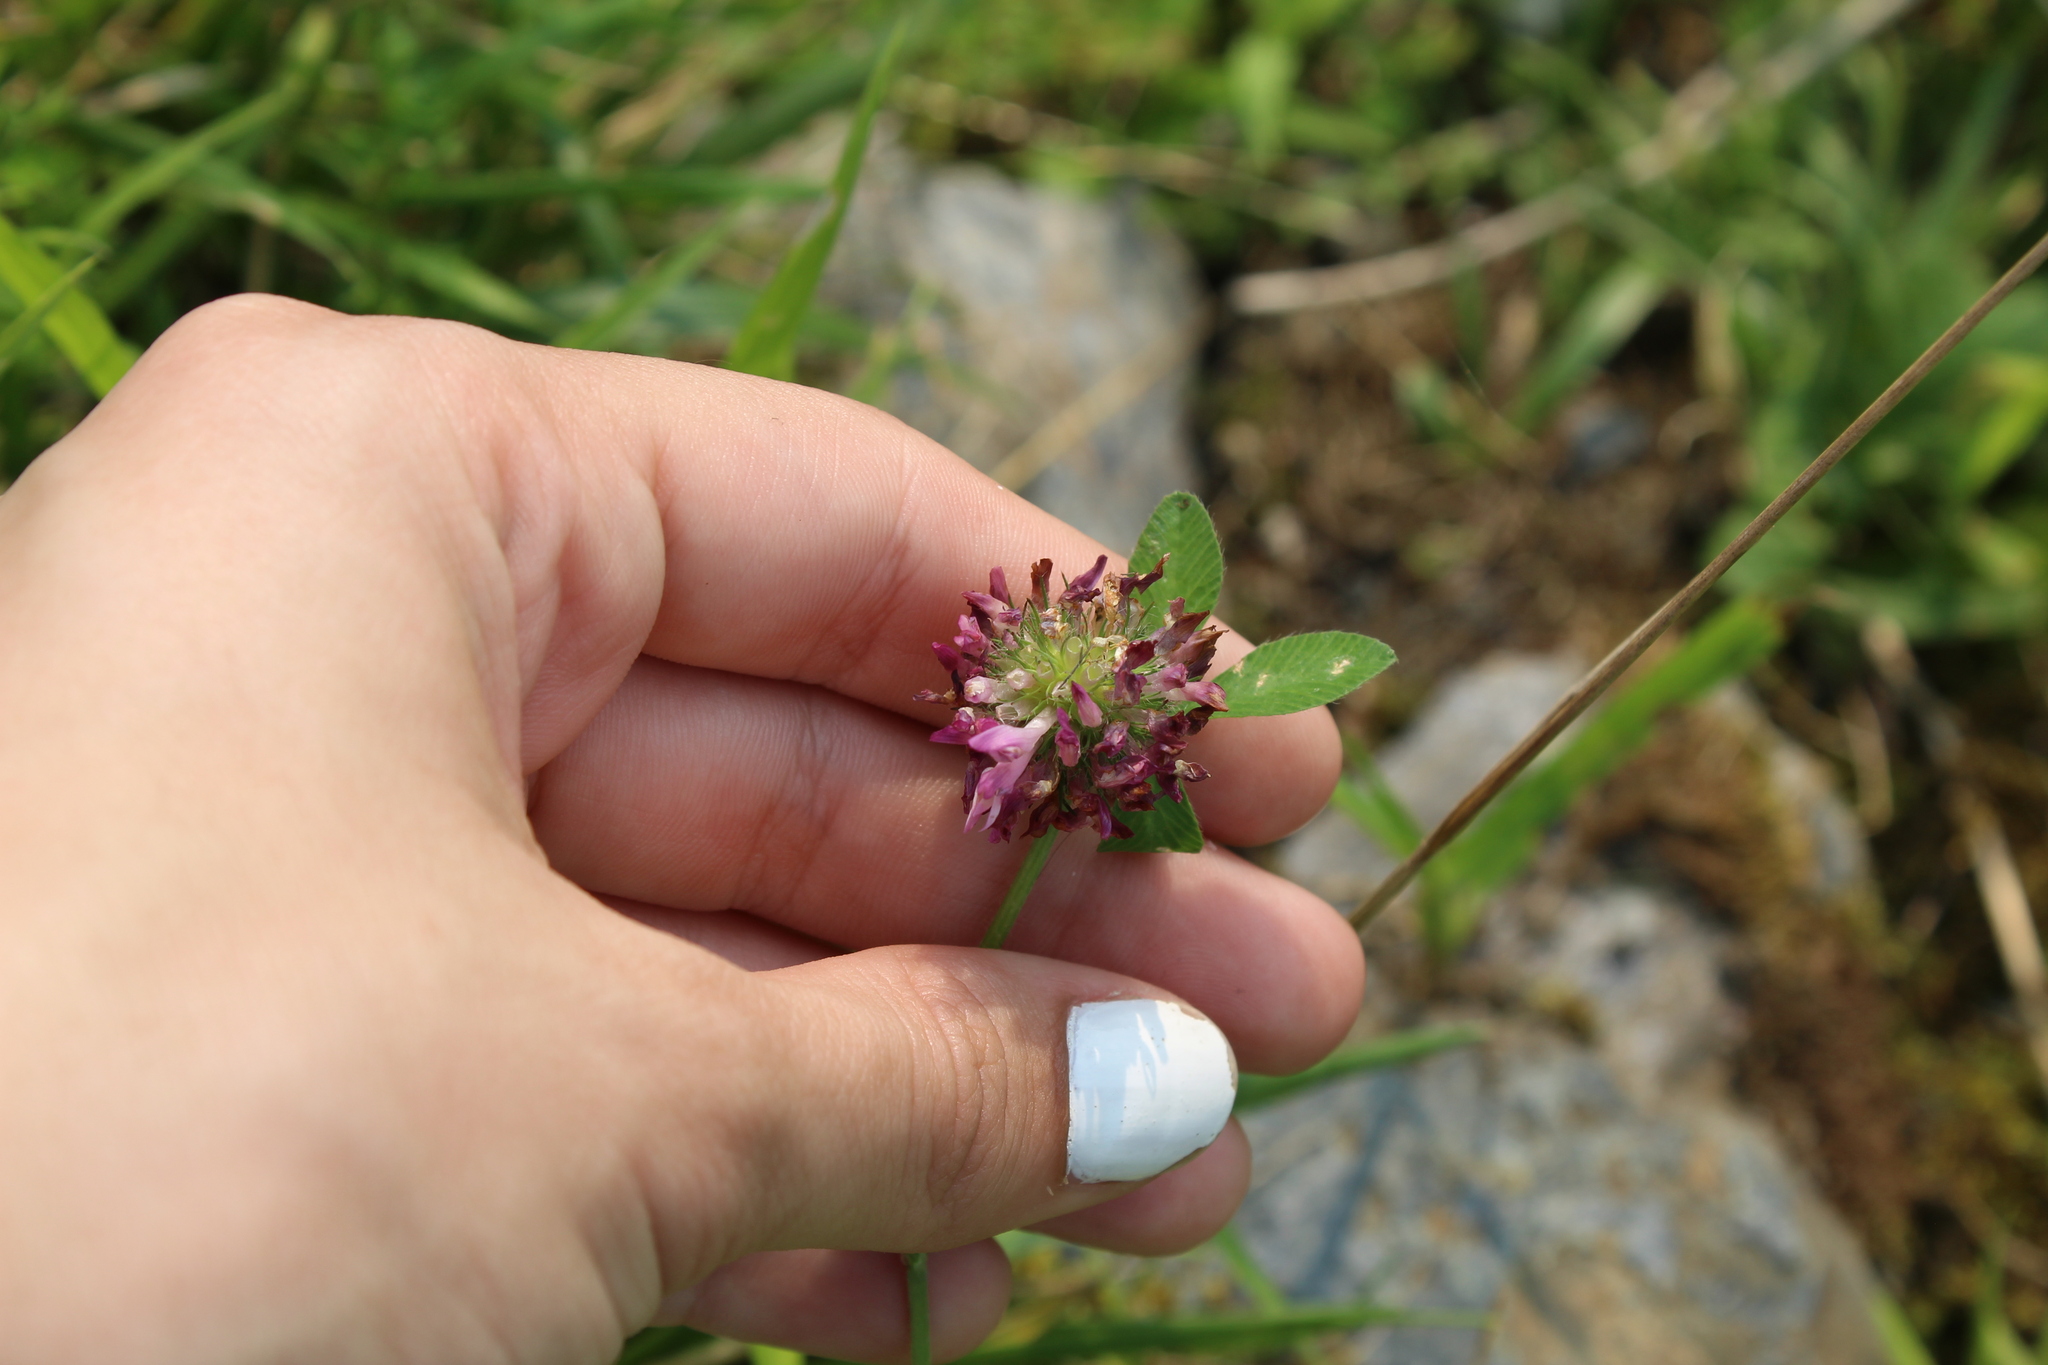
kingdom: Plantae
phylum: Tracheophyta
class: Magnoliopsida
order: Fabales
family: Fabaceae
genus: Trifolium
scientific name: Trifolium pratense
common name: Red clover
